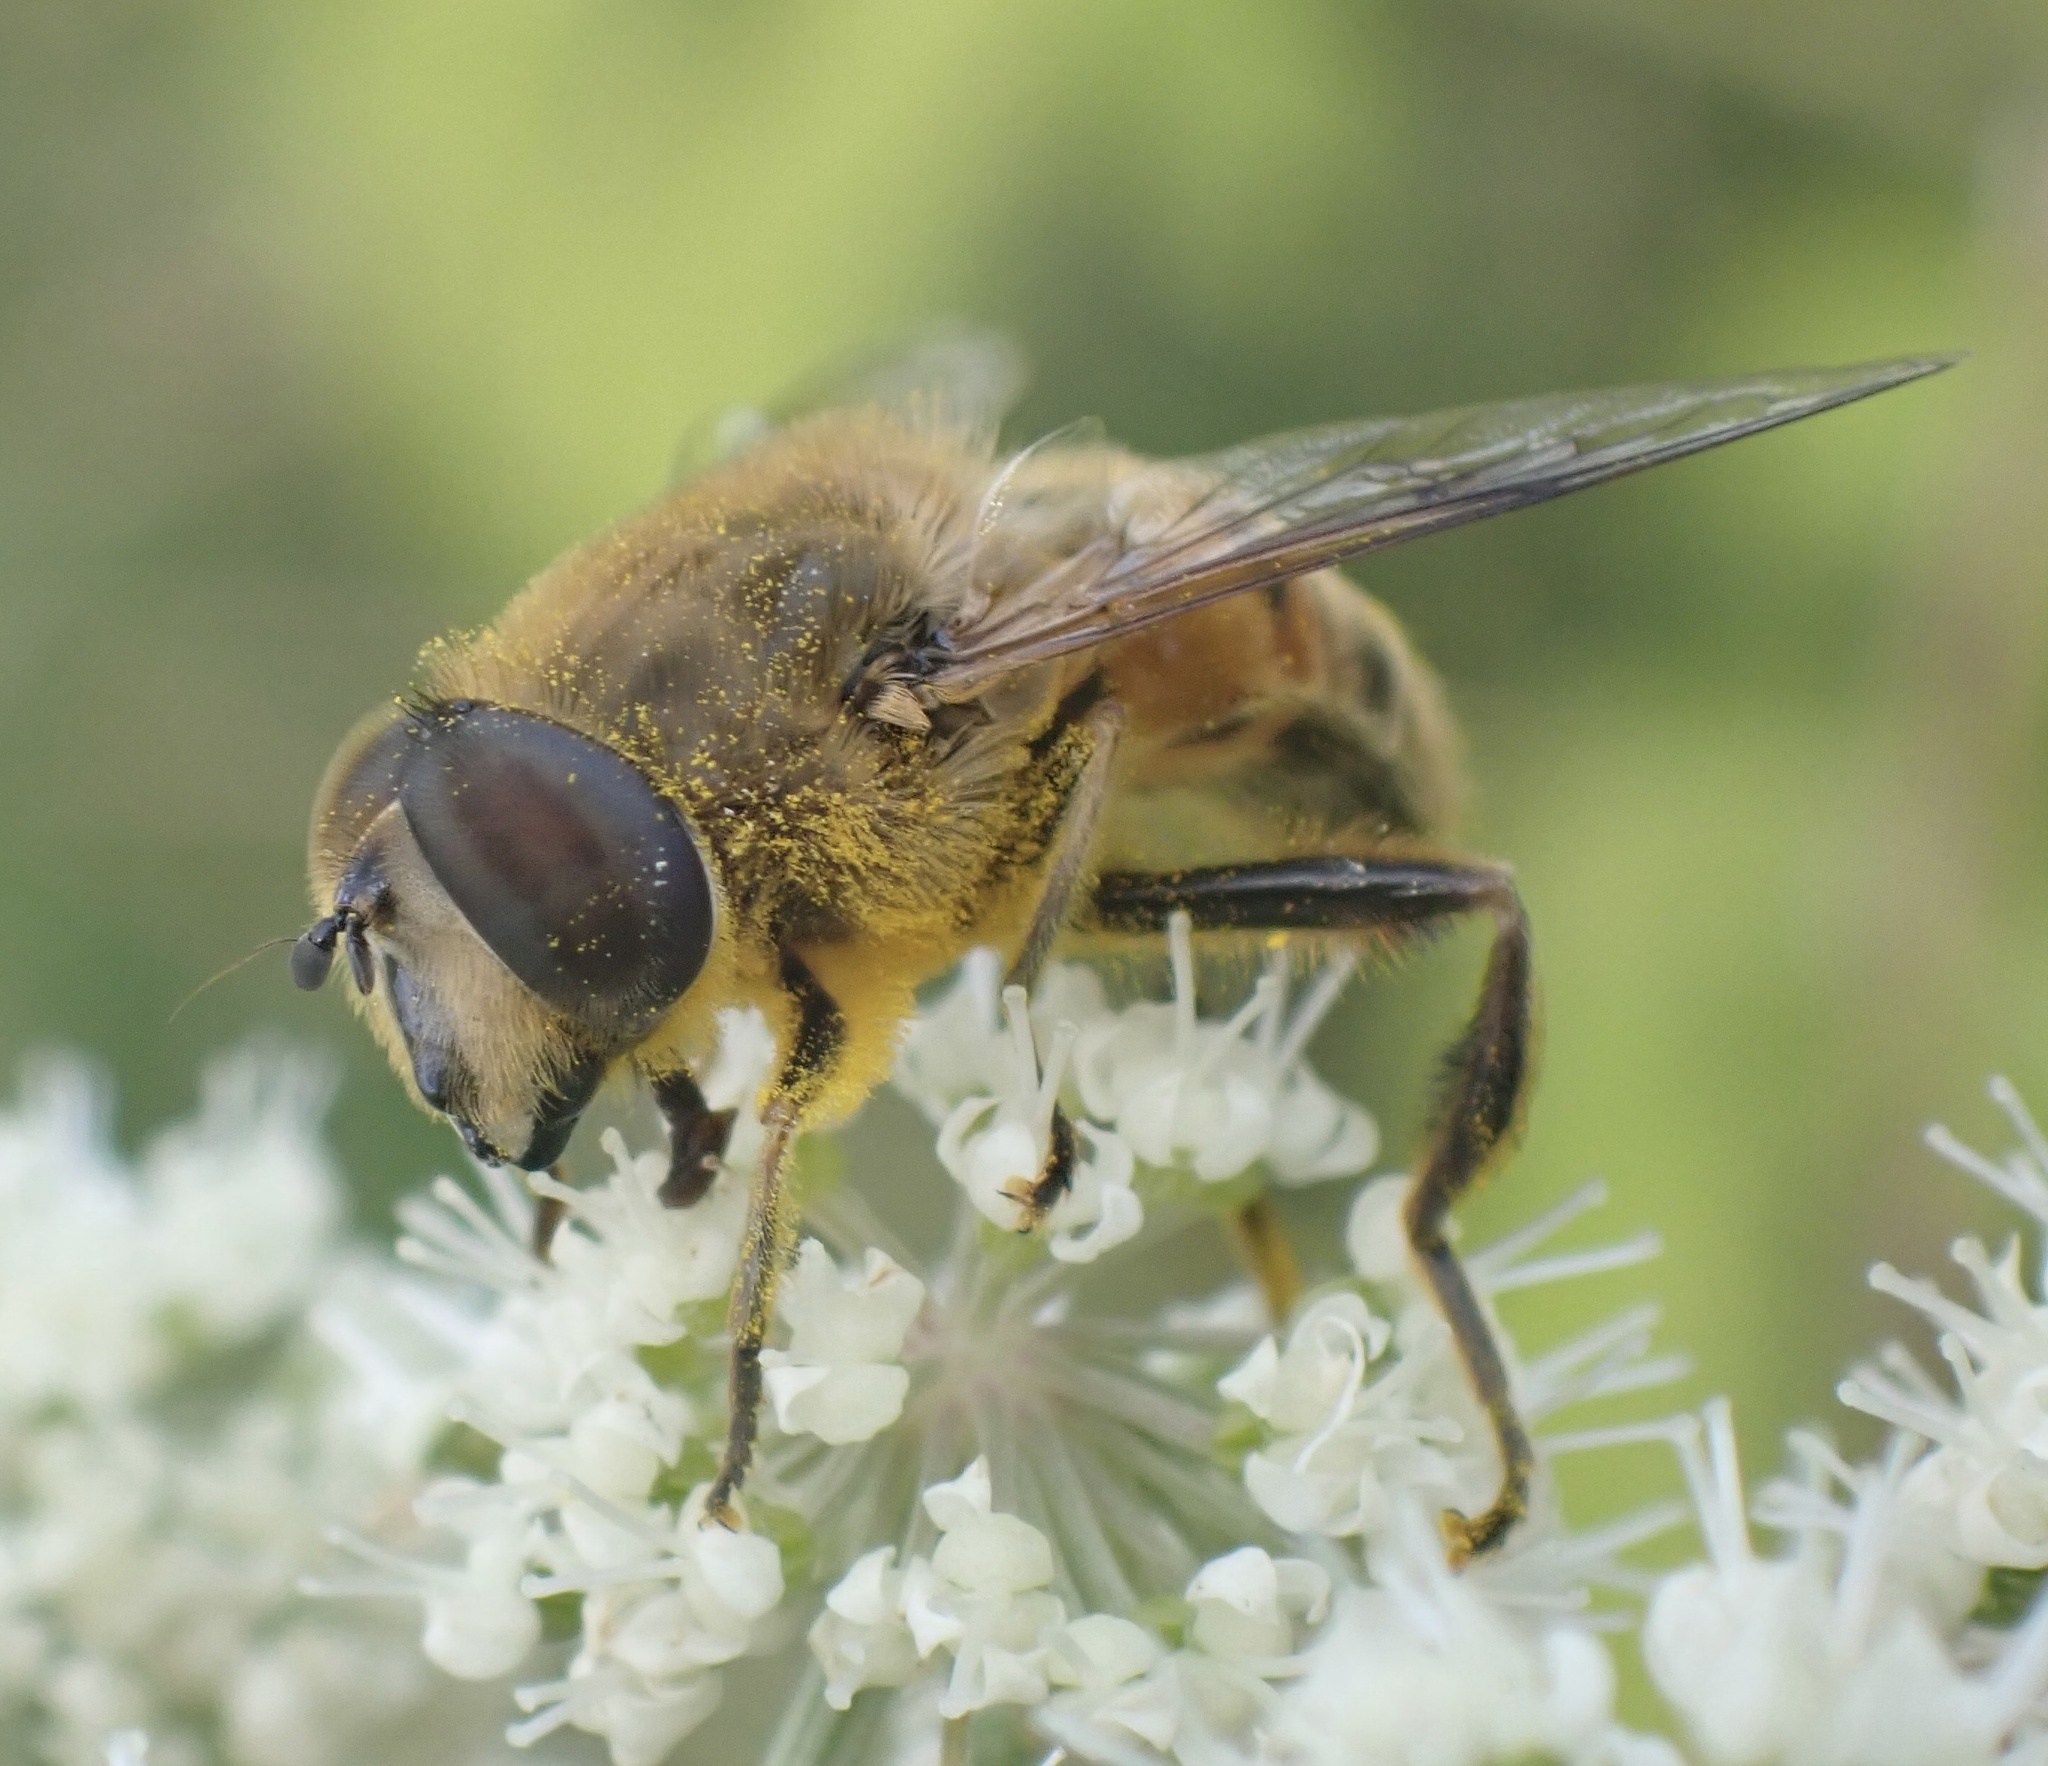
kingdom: Animalia
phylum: Arthropoda
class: Insecta
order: Diptera
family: Syrphidae
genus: Eristalis
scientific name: Eristalis tenax
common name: Drone fly
